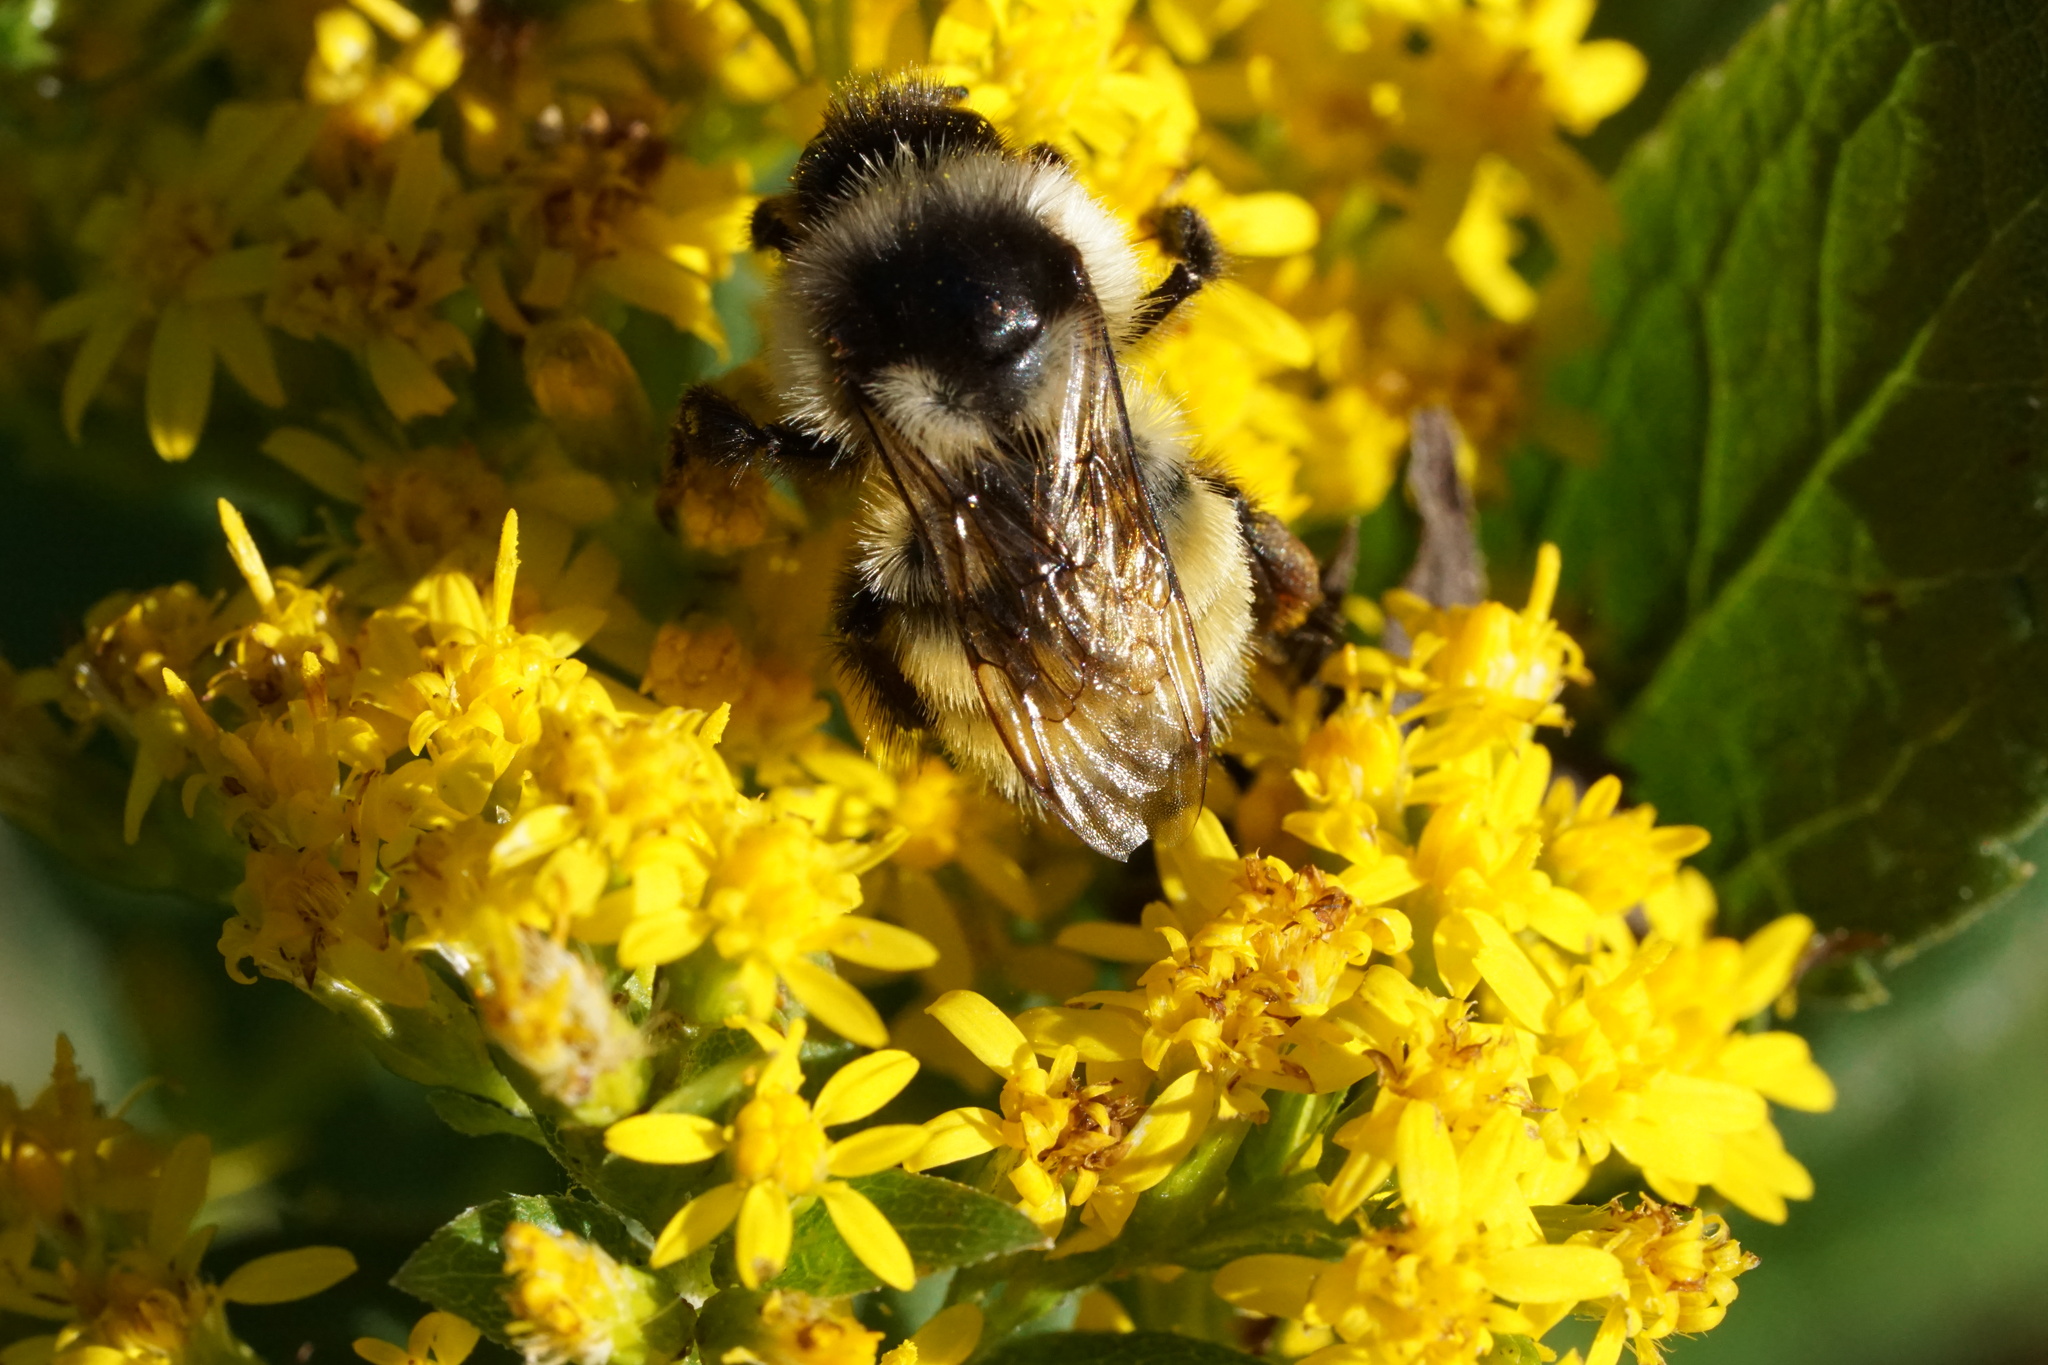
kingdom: Animalia
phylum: Arthropoda
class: Insecta
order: Hymenoptera
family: Apidae
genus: Bombus
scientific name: Bombus ternarius
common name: Tri-colored bumble bee
